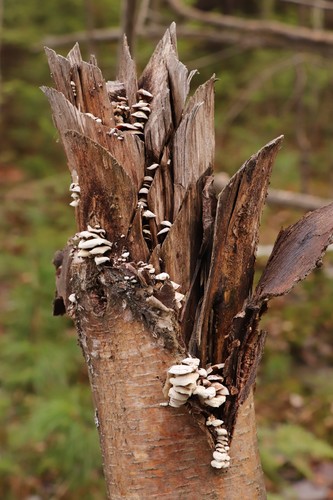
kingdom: Fungi
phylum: Basidiomycota
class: Agaricomycetes
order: Agaricales
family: Mycenaceae
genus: Panellus
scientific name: Panellus stipticus
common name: Bitter oysterling
